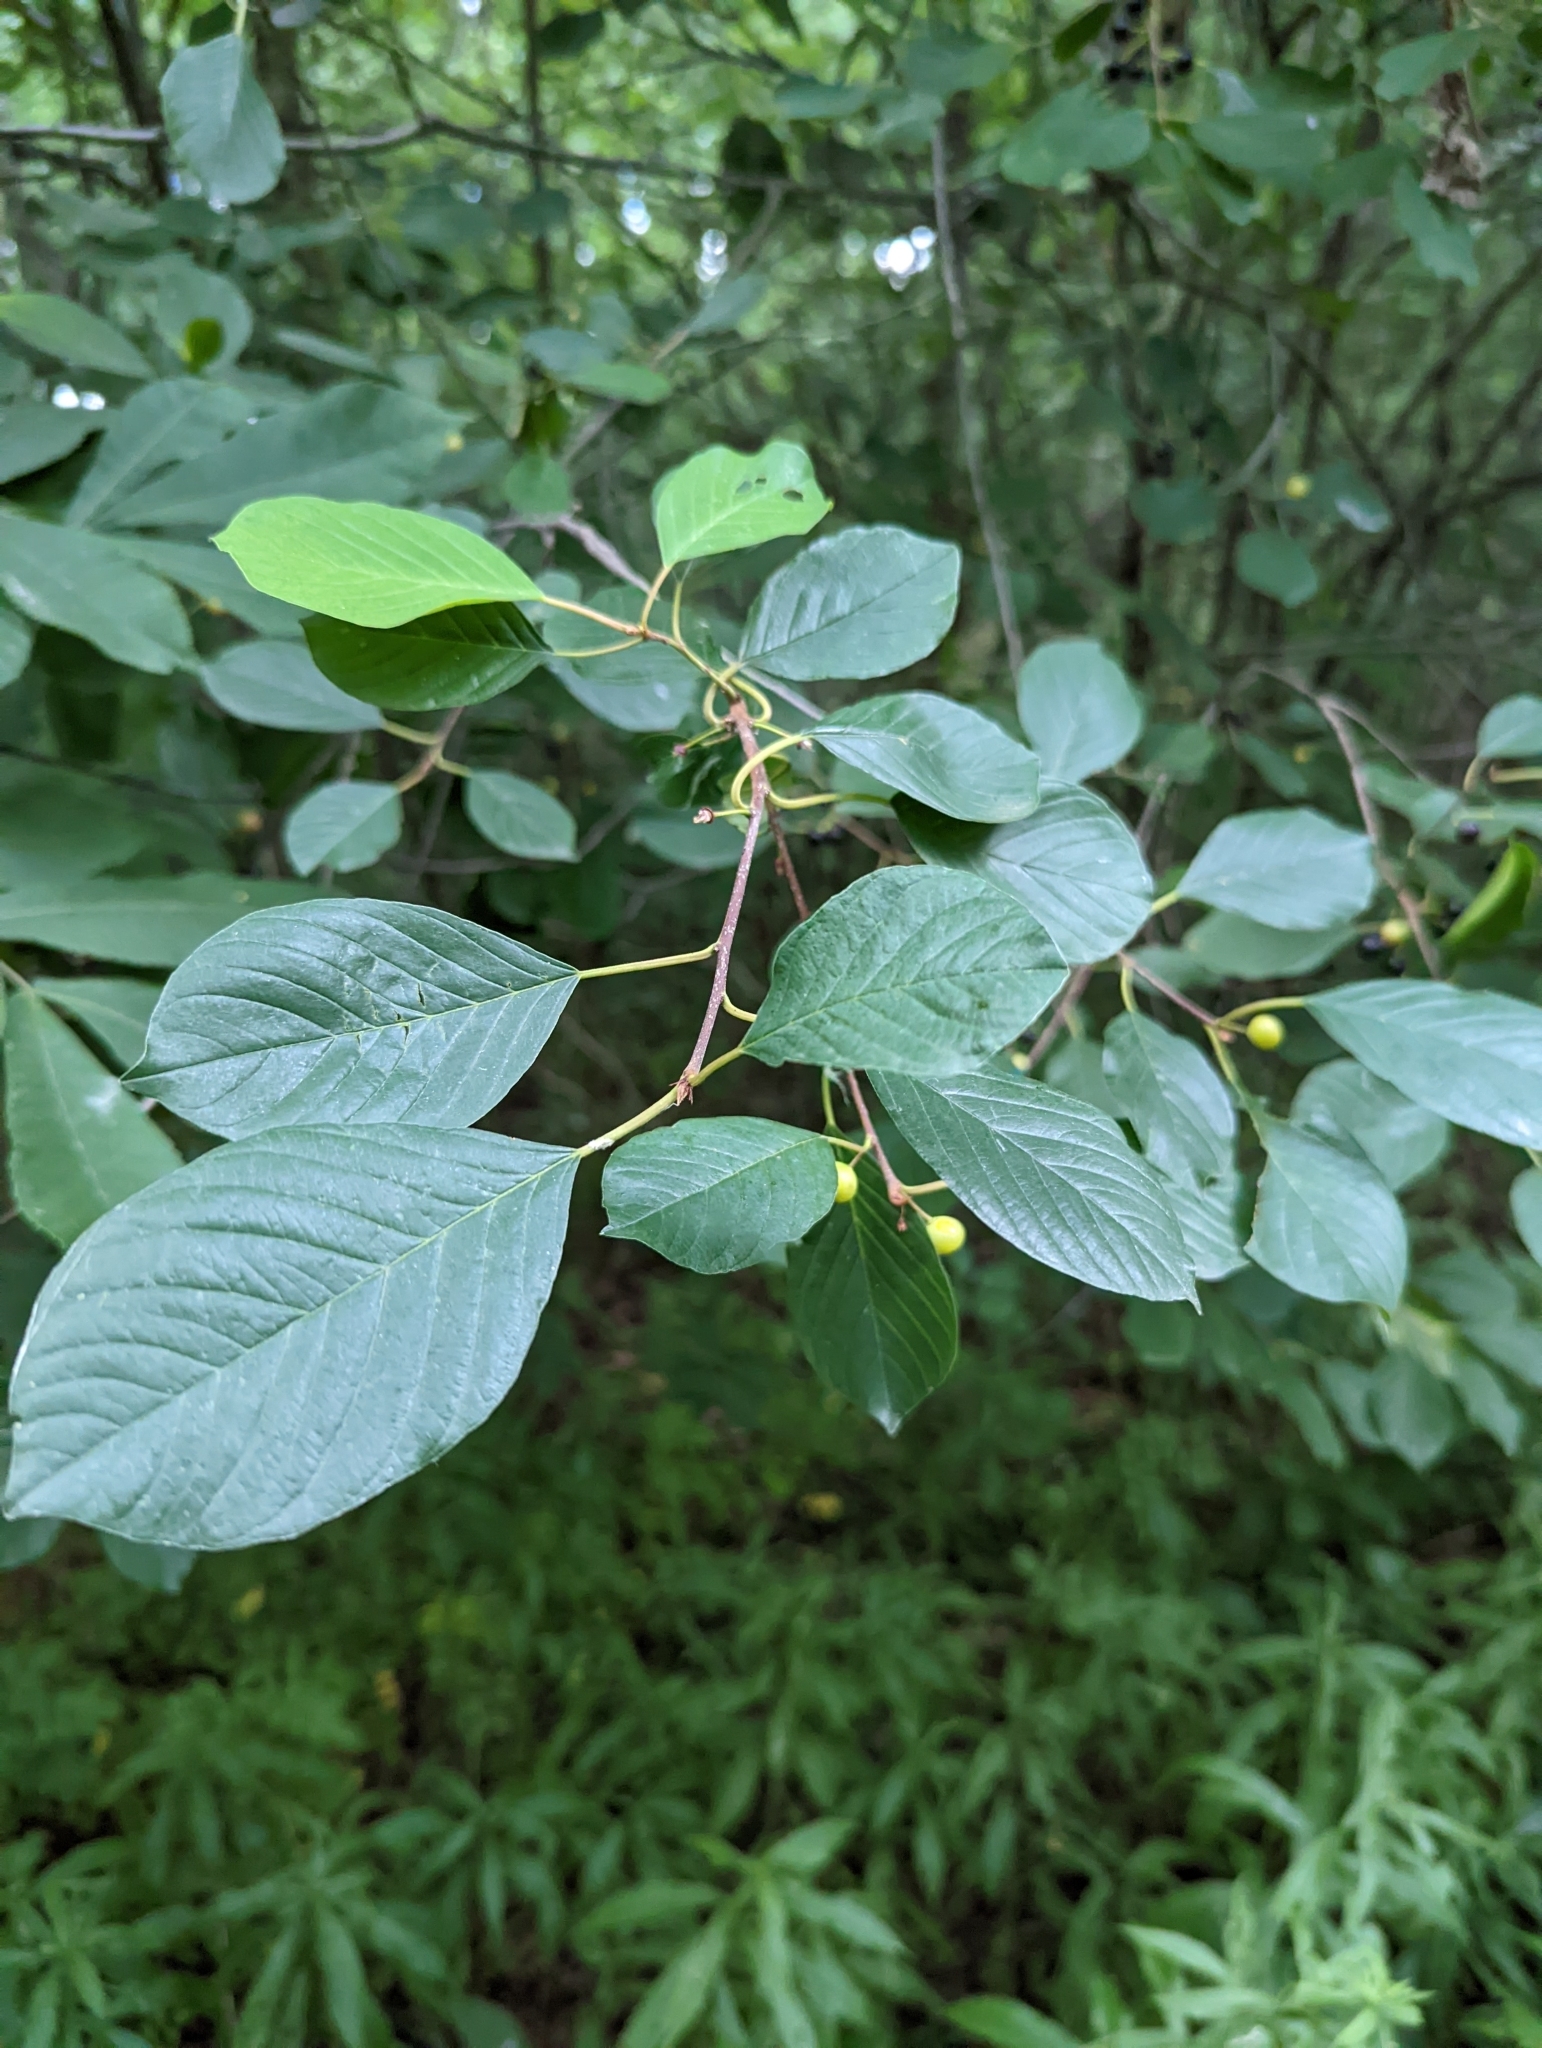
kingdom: Plantae
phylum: Tracheophyta
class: Magnoliopsida
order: Rosales
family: Rhamnaceae
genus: Frangula
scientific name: Frangula alnus
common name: Alder buckthorn
